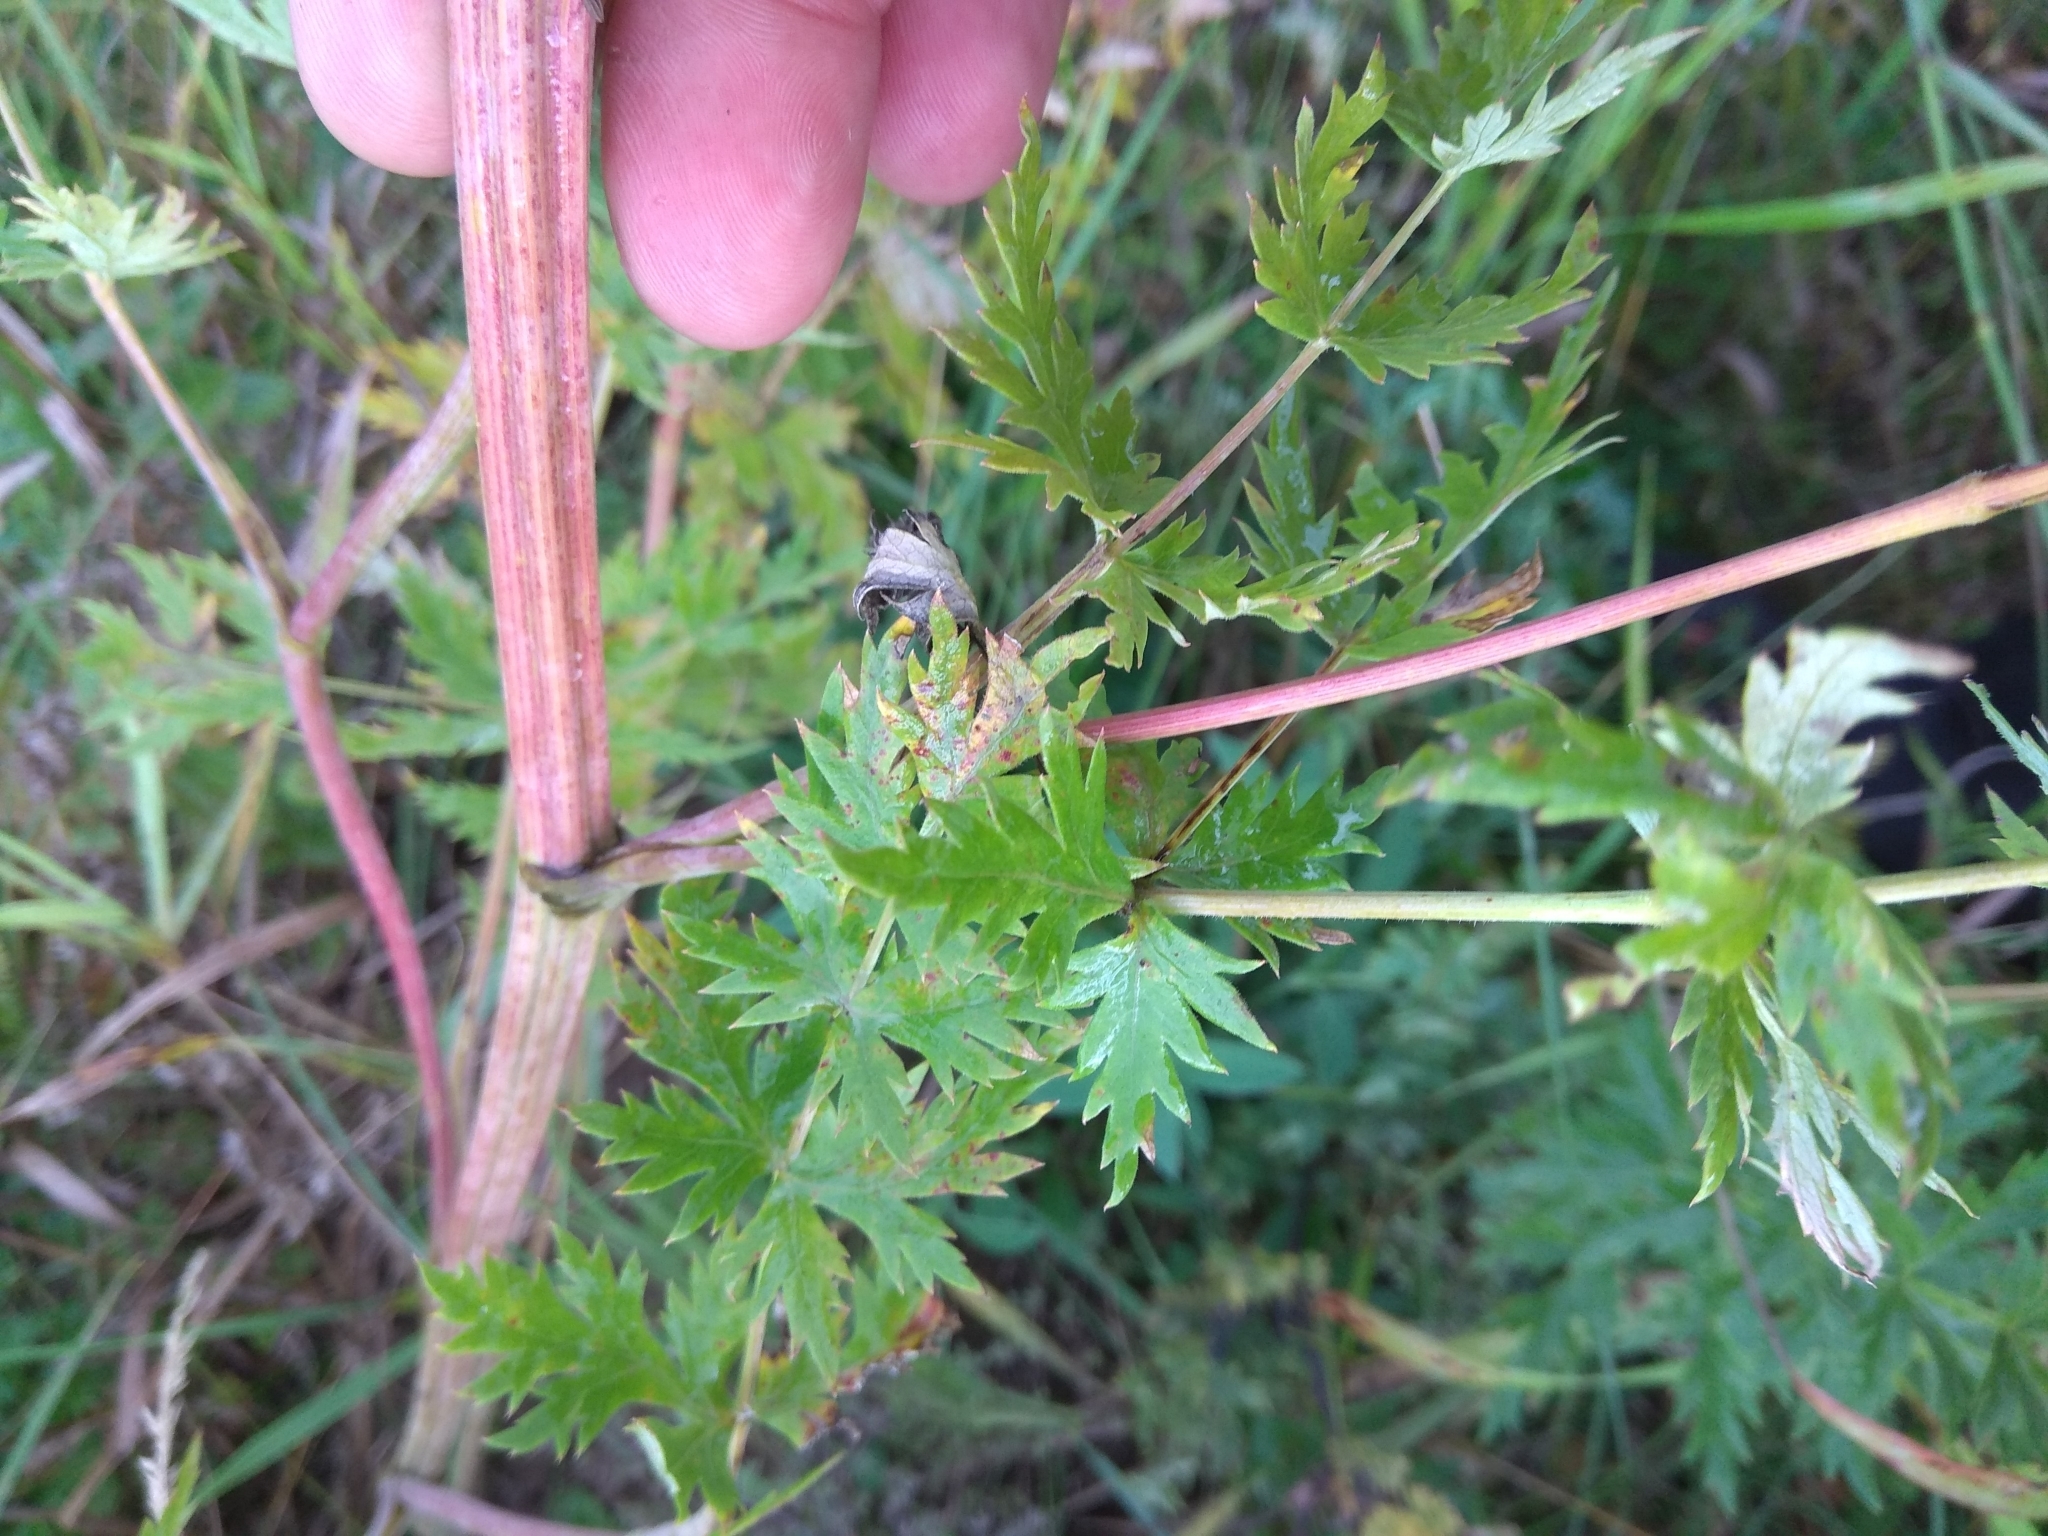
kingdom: Plantae
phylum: Tracheophyta
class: Magnoliopsida
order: Apiales
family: Apiaceae
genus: Seseli
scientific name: Seseli libanotis
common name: Mooncarrot
